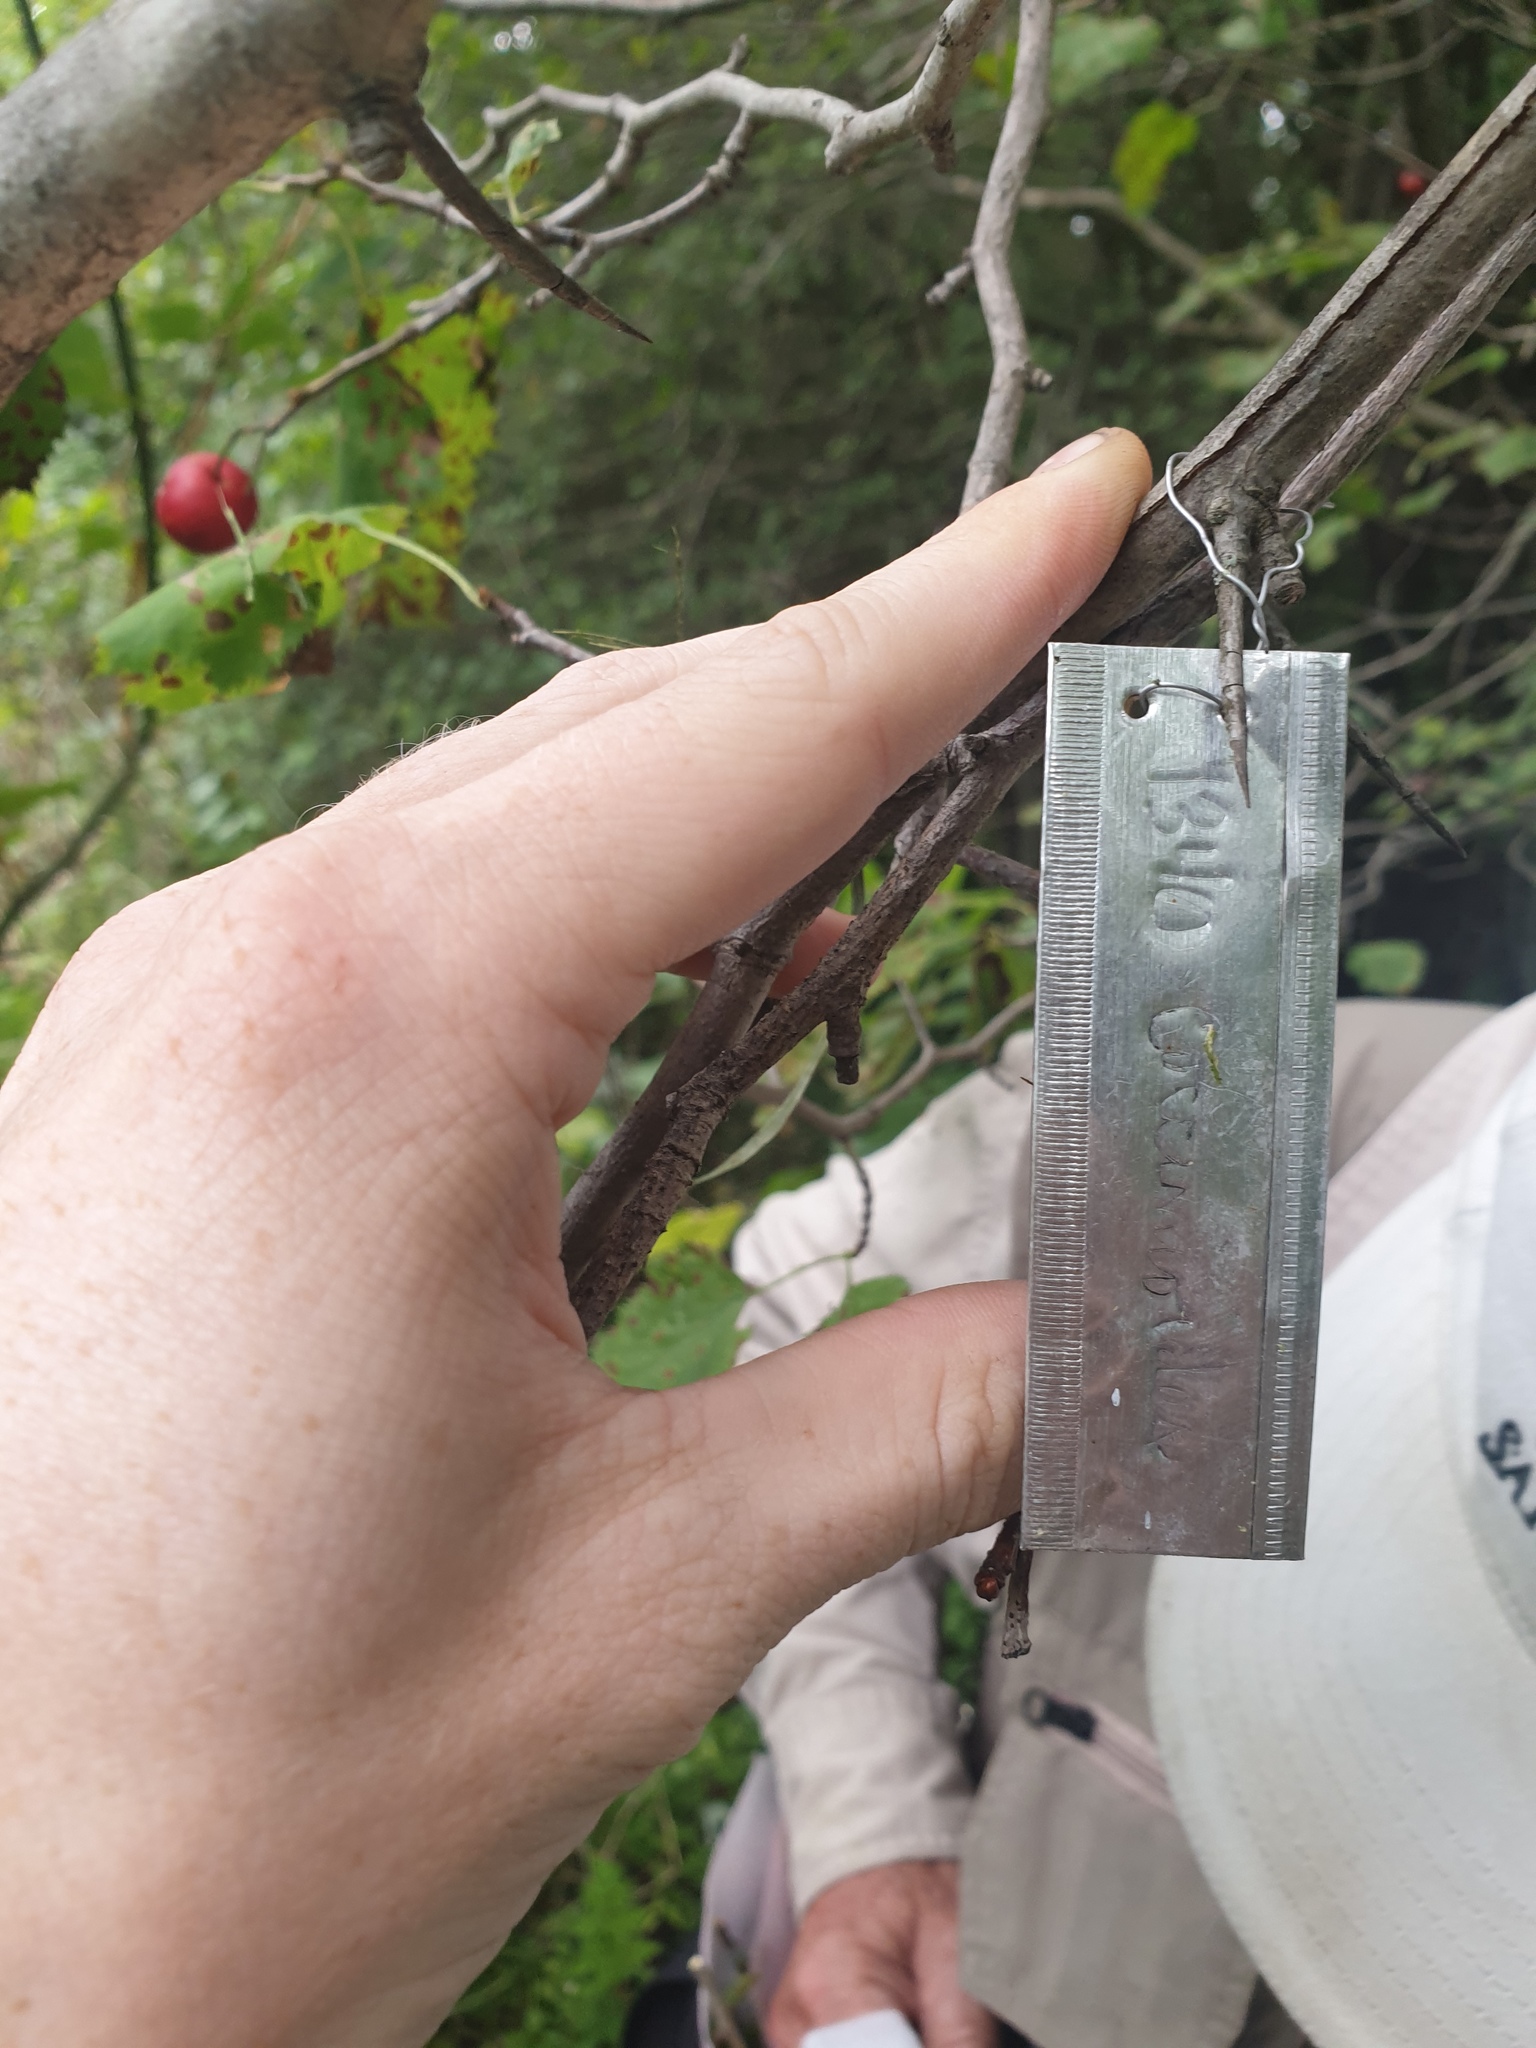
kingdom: Plantae
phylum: Tracheophyta
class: Magnoliopsida
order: Rosales
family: Rosaceae
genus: Crataegus
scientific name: Crataegus coccinioides
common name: Large-flowered cockspurthorn
